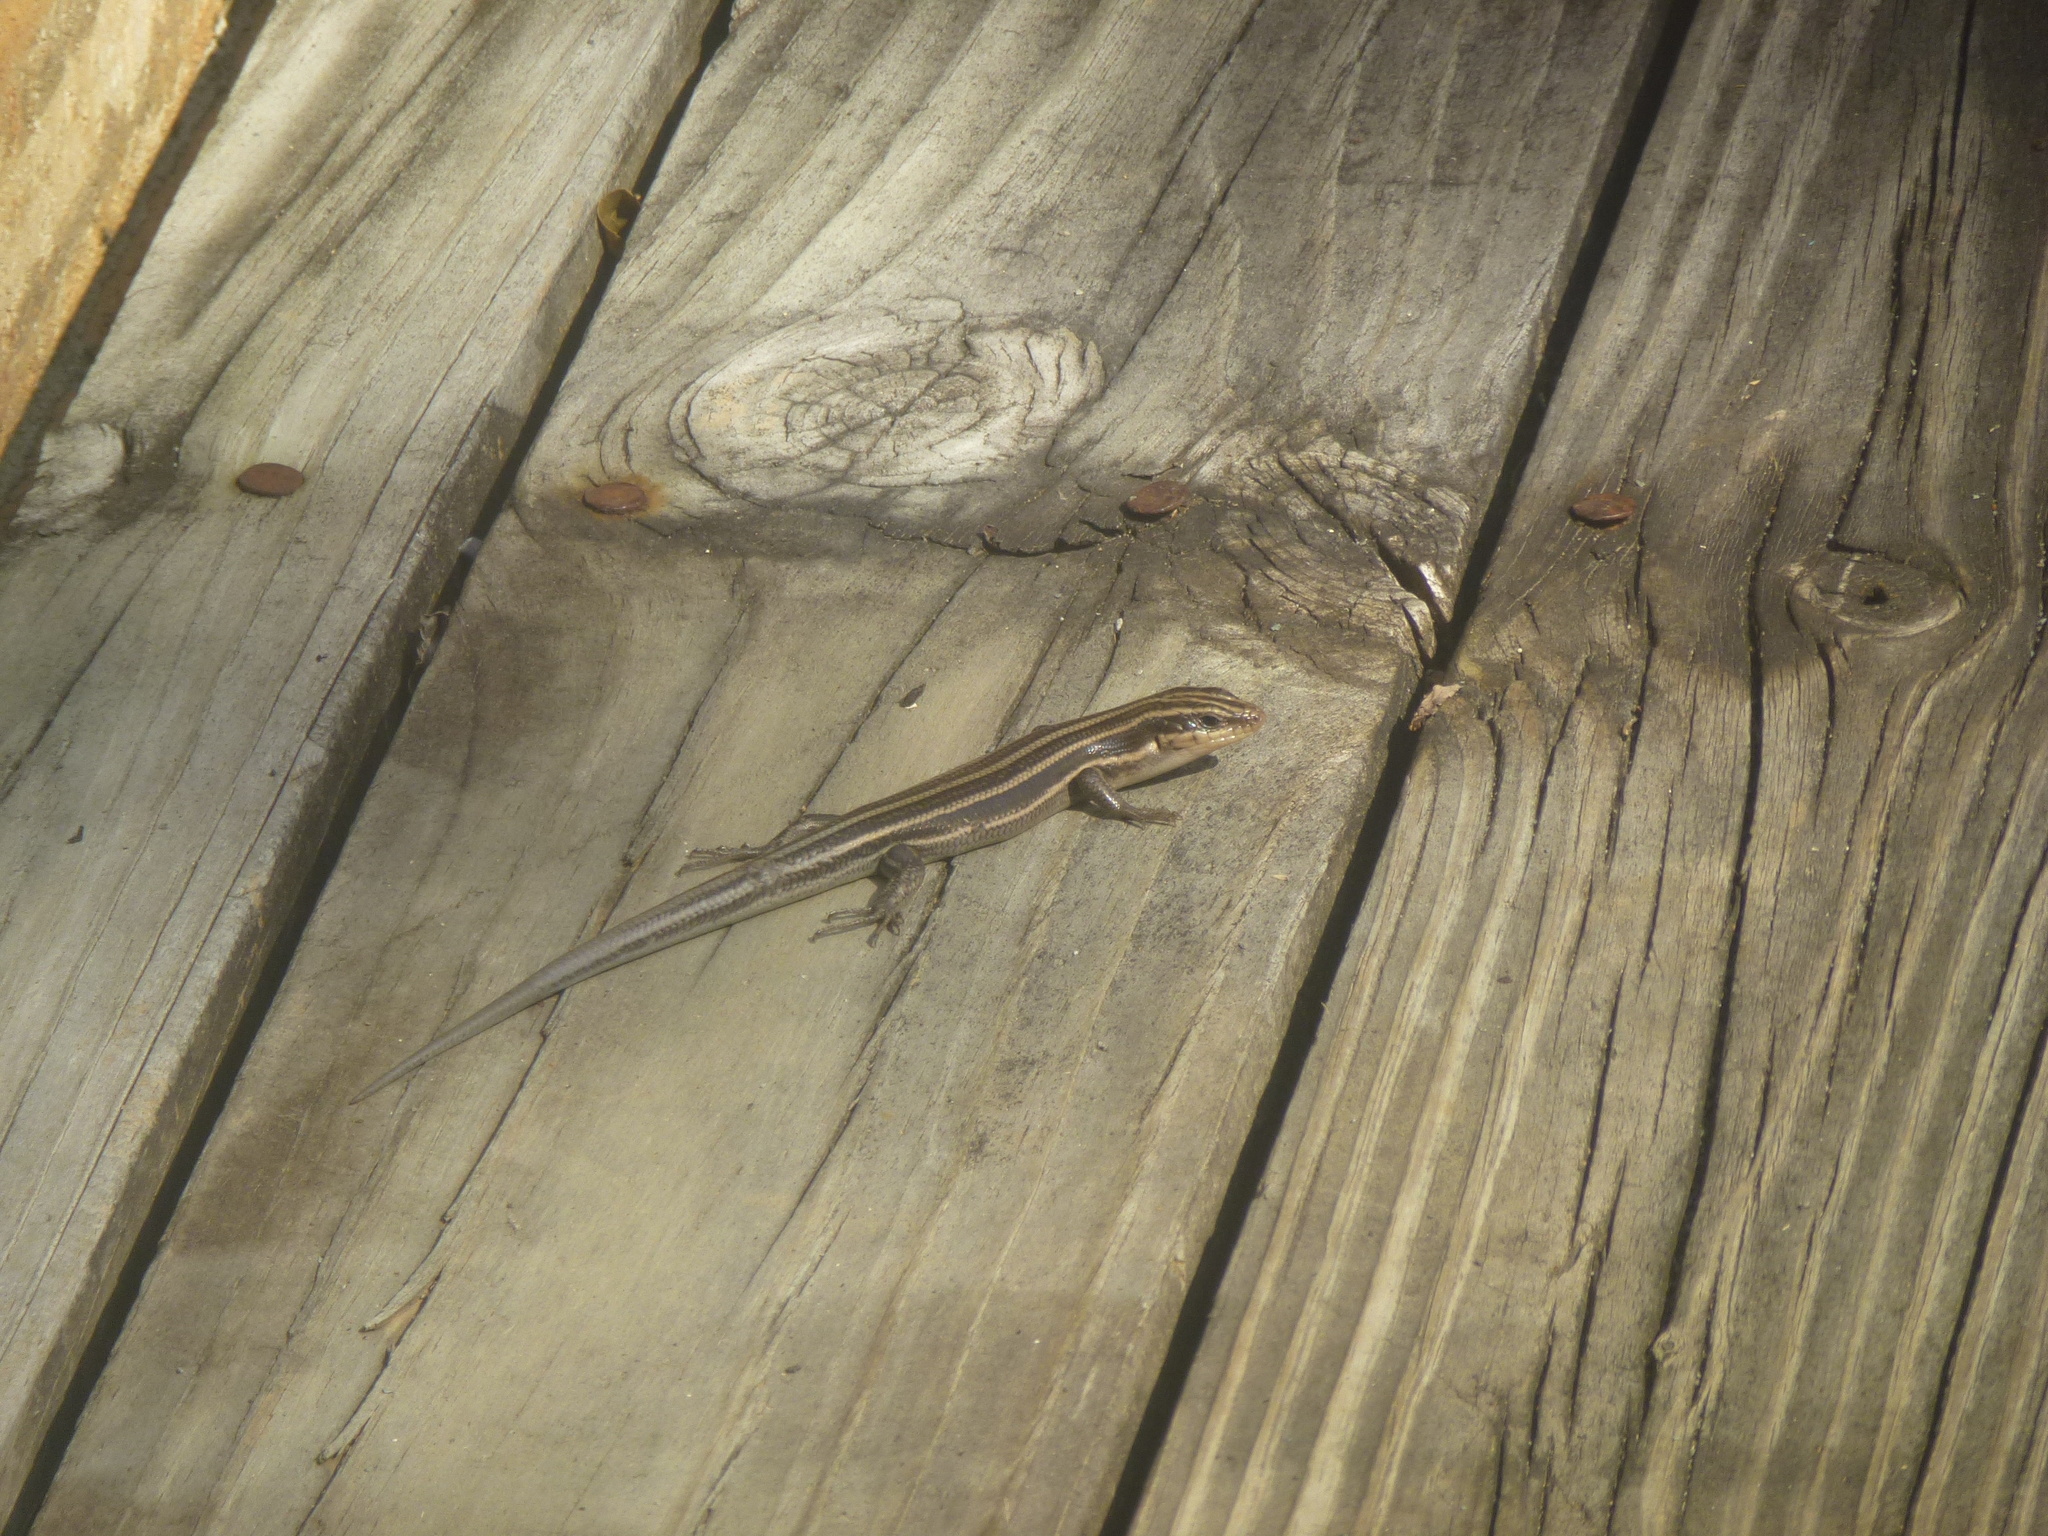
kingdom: Animalia
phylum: Chordata
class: Squamata
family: Scincidae
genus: Plestiodon
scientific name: Plestiodon fasciatus
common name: Five-lined skink
